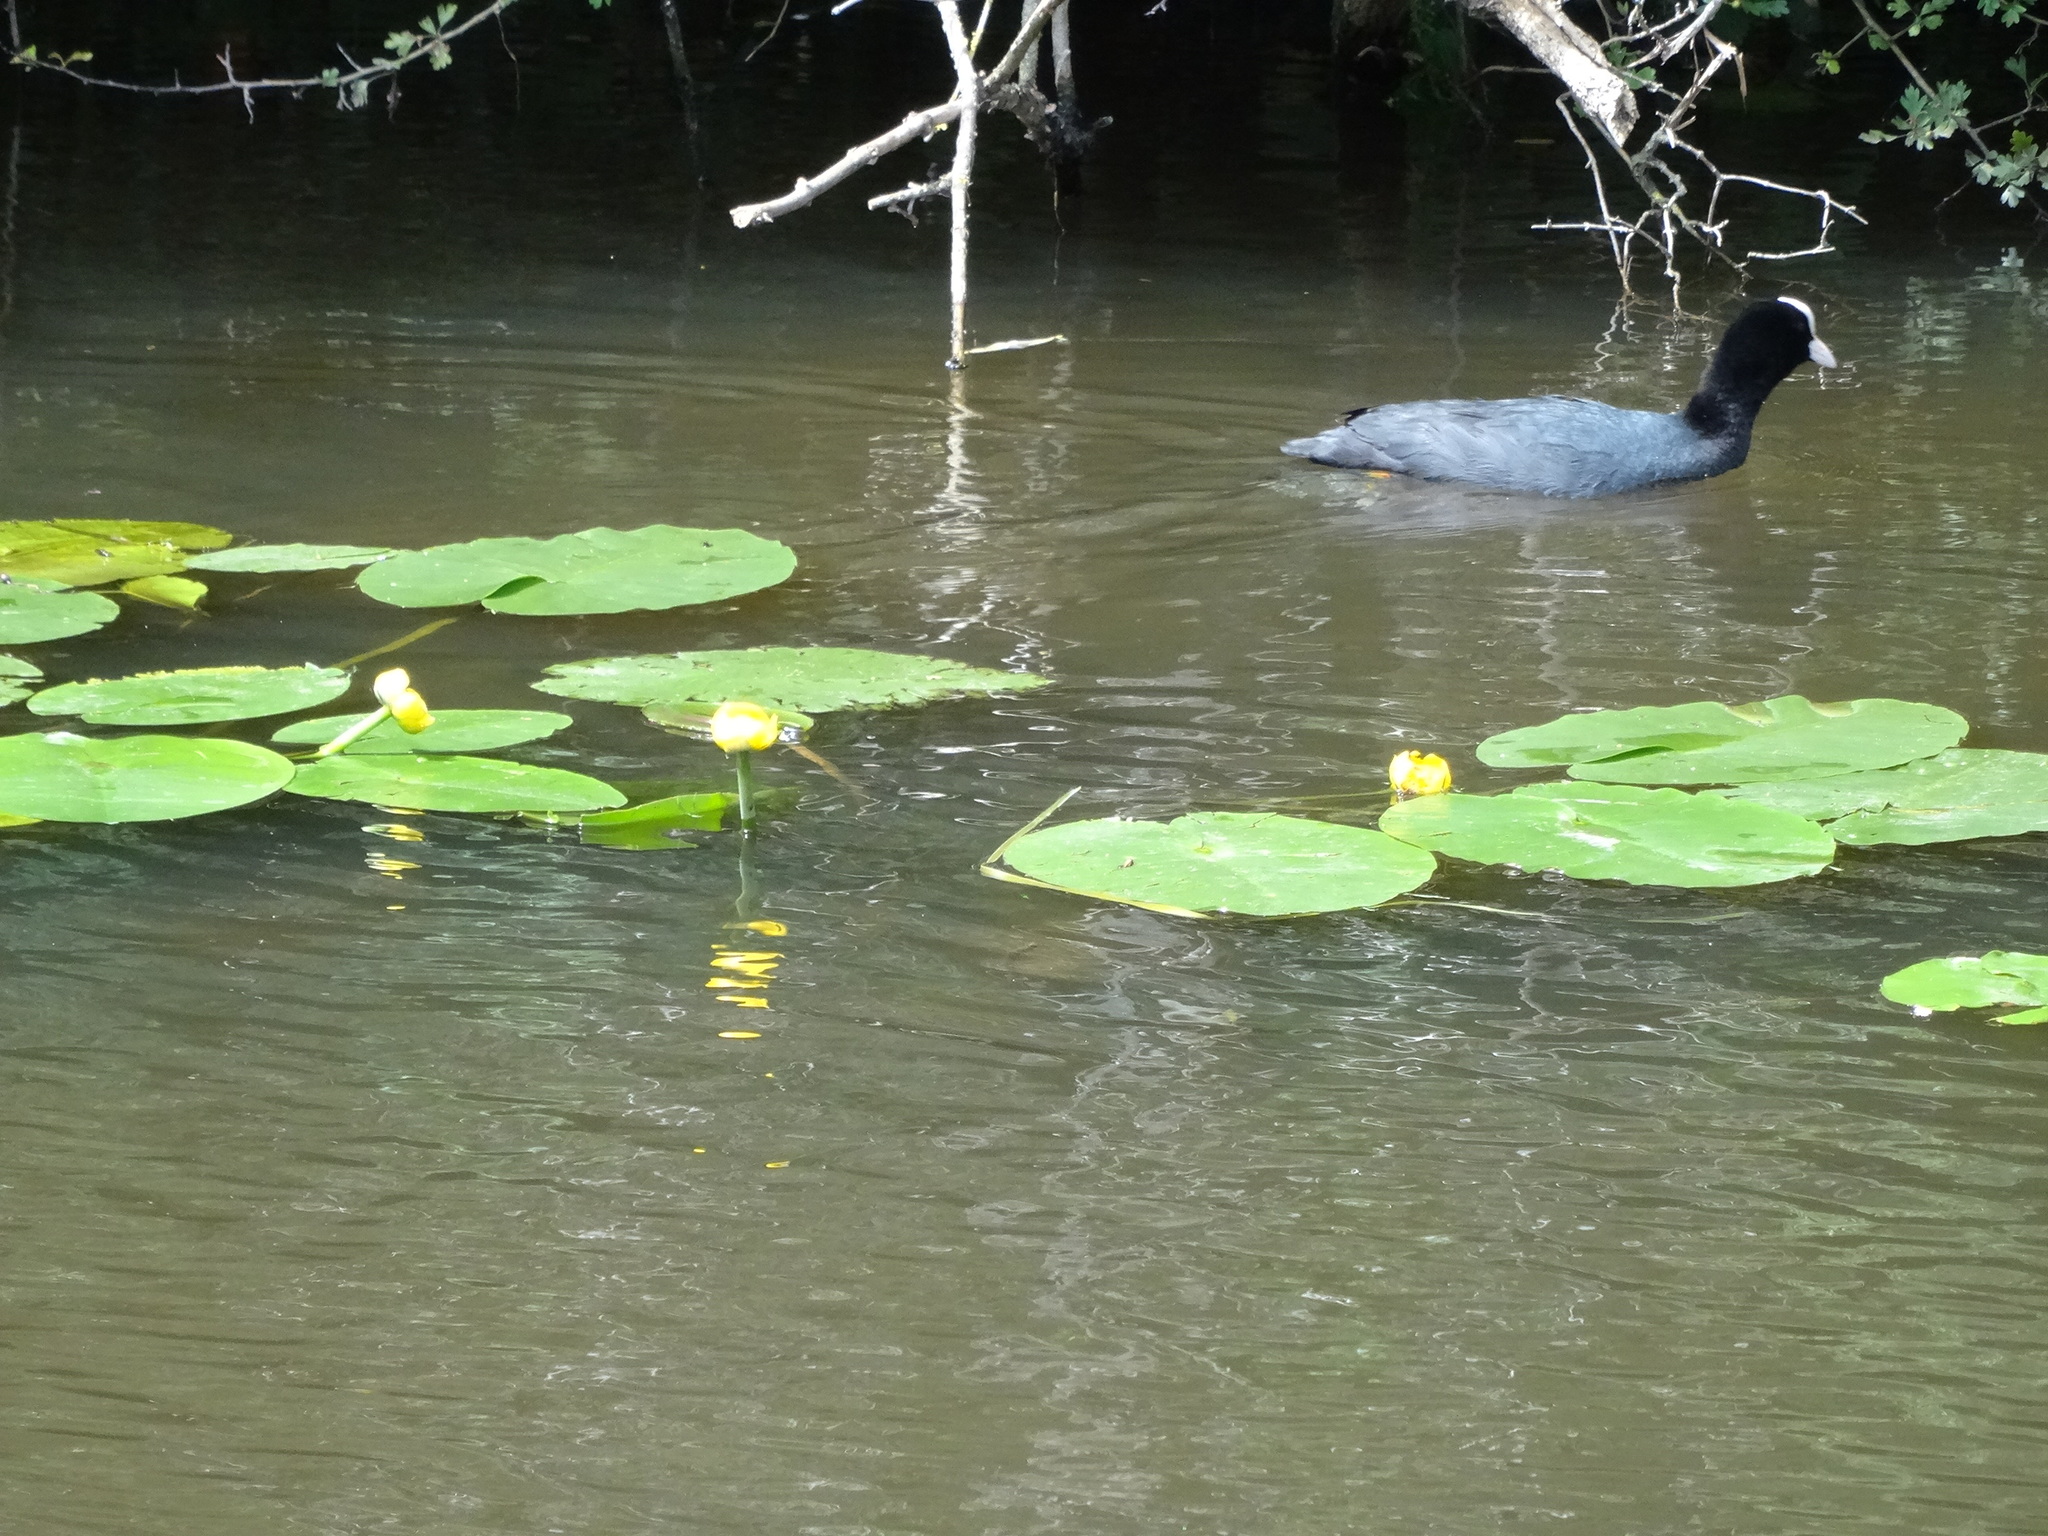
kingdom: Plantae
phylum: Tracheophyta
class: Magnoliopsida
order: Nymphaeales
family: Nymphaeaceae
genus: Nuphar
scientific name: Nuphar lutea
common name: Yellow water-lily
